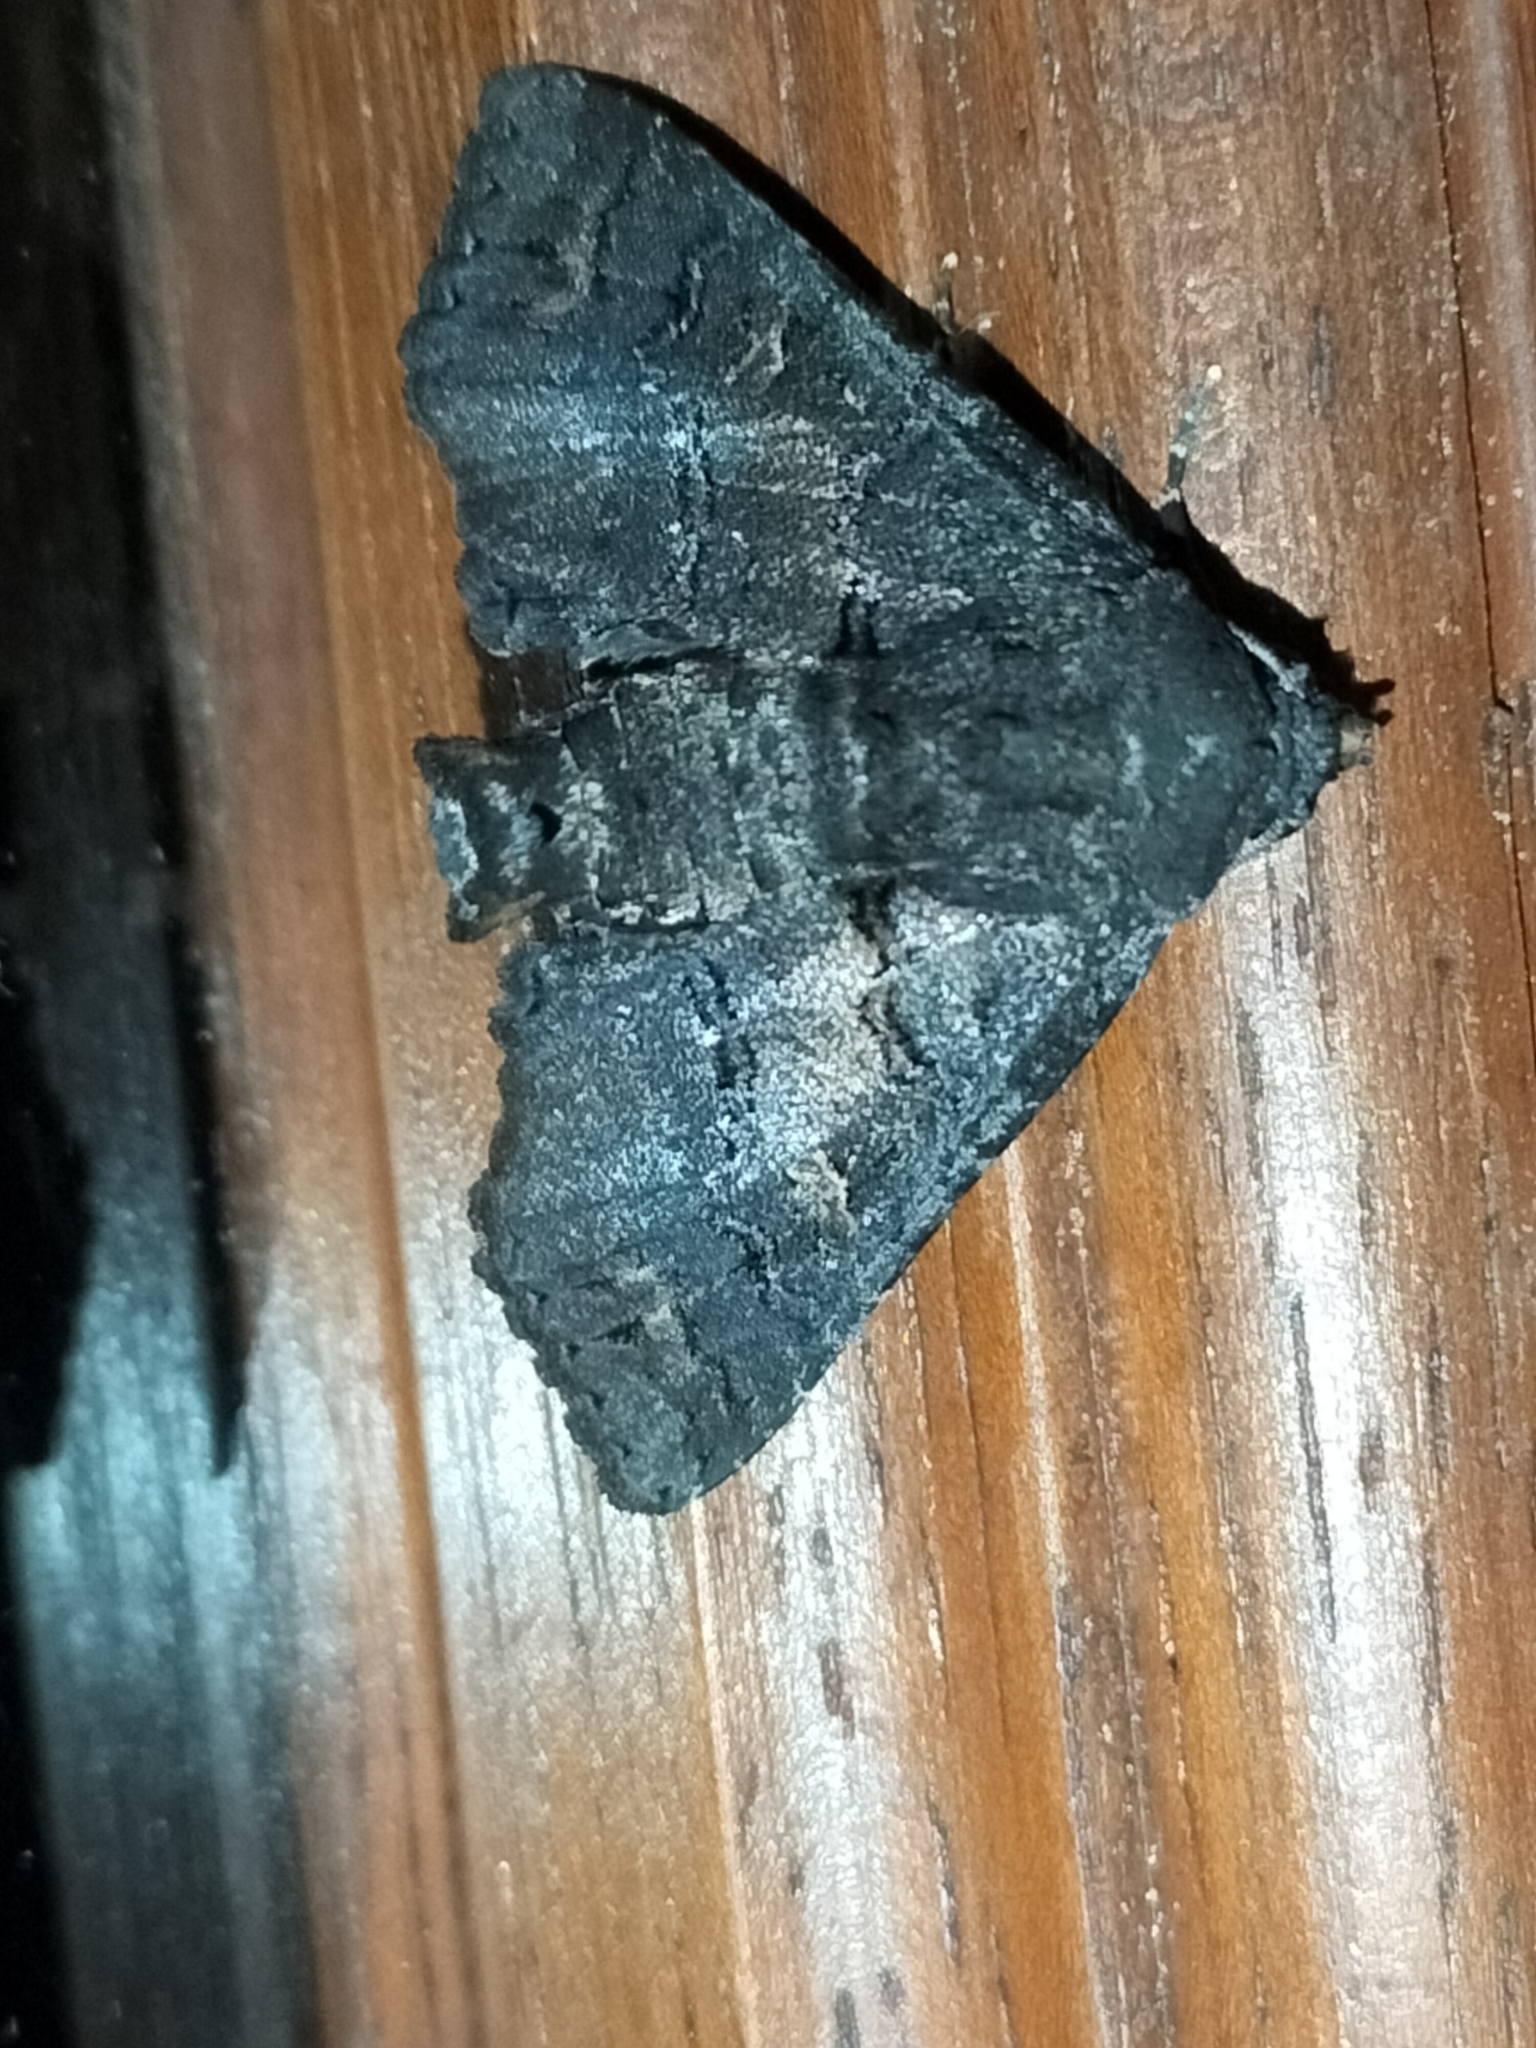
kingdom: Animalia
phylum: Arthropoda
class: Insecta
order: Lepidoptera
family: Euteliidae
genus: Pataeta
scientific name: Pataeta carbo
